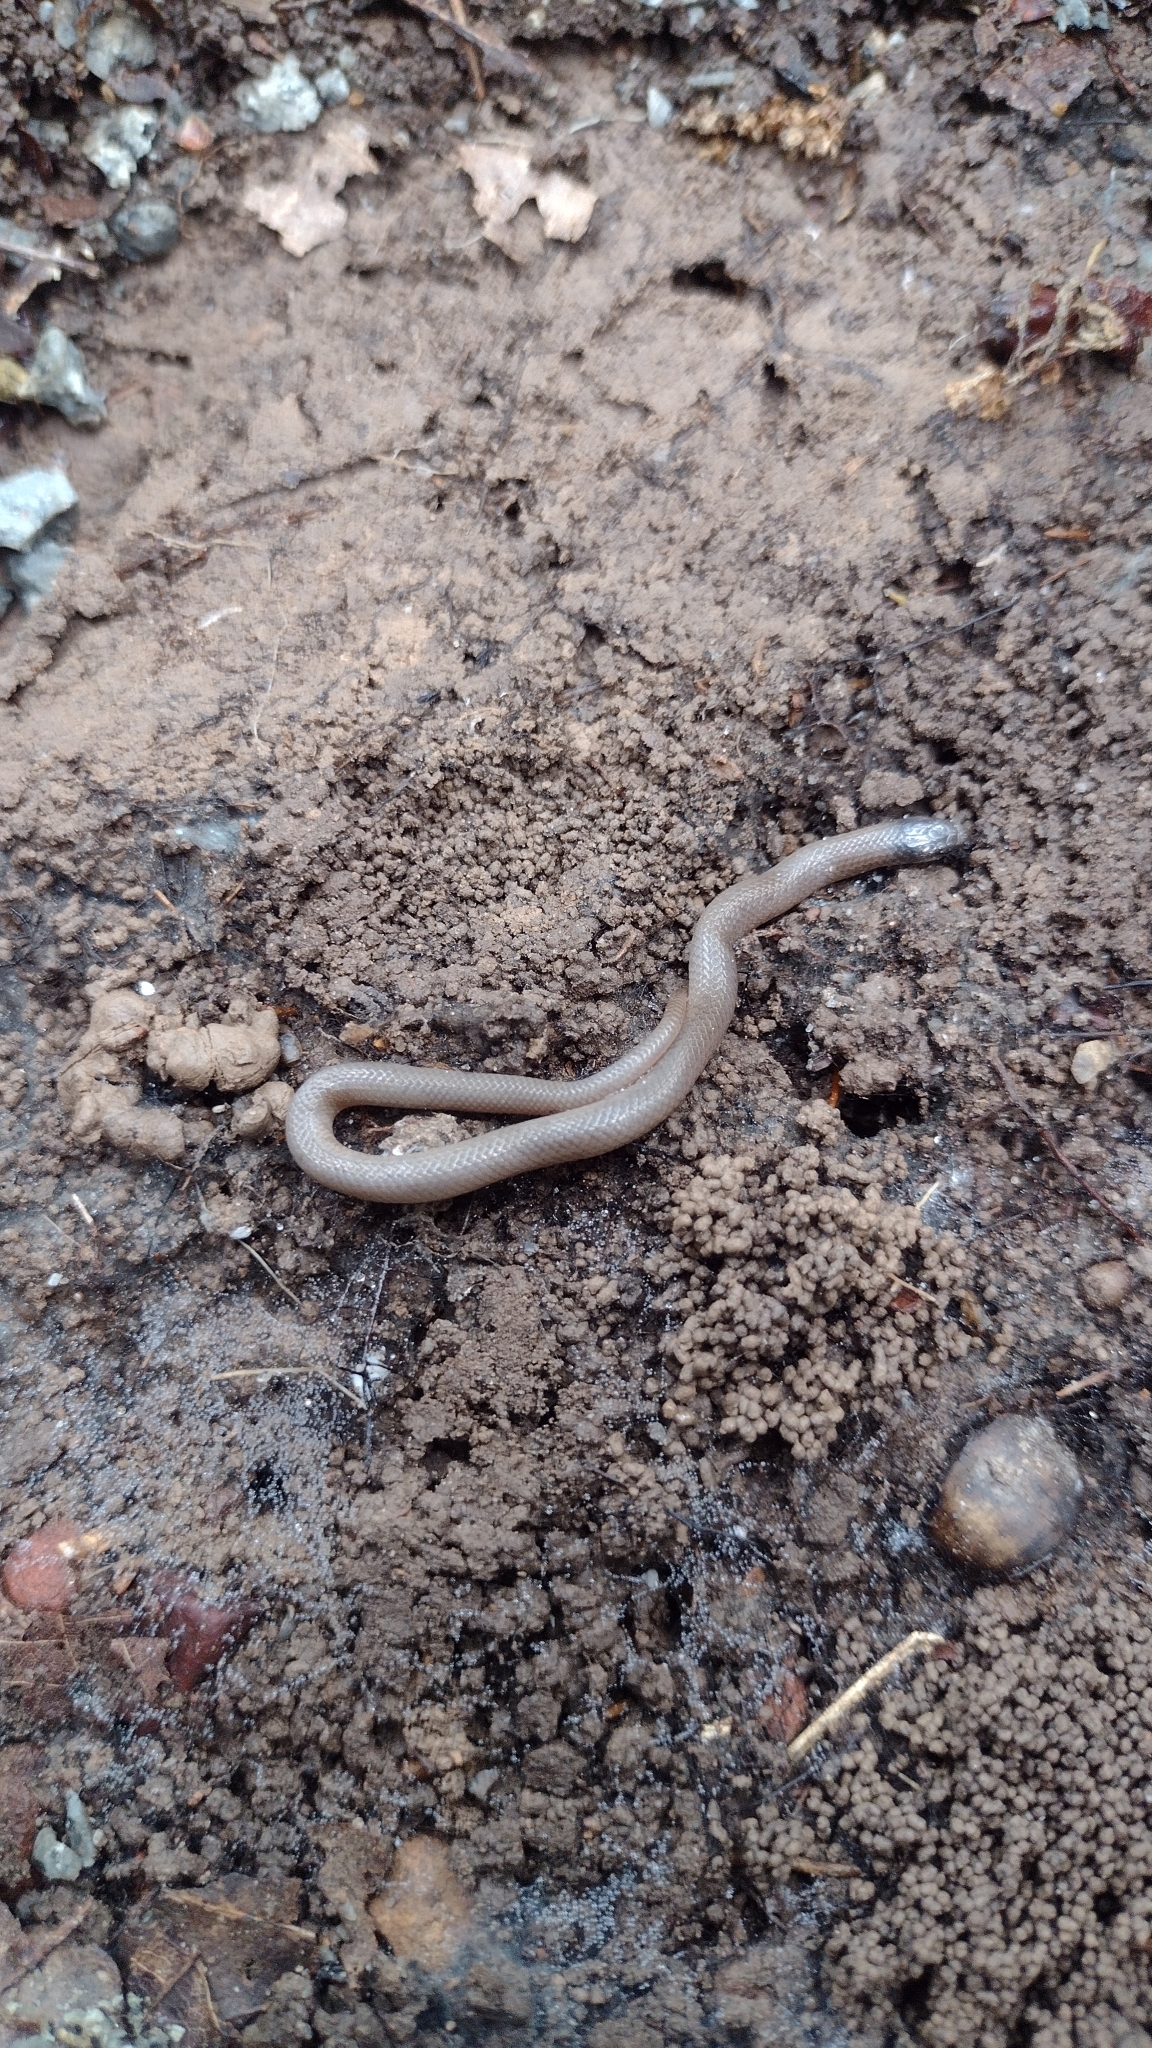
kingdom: Animalia
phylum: Chordata
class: Squamata
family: Colubridae
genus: Tantilla
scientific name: Tantilla gracilis
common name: Flathead snake
